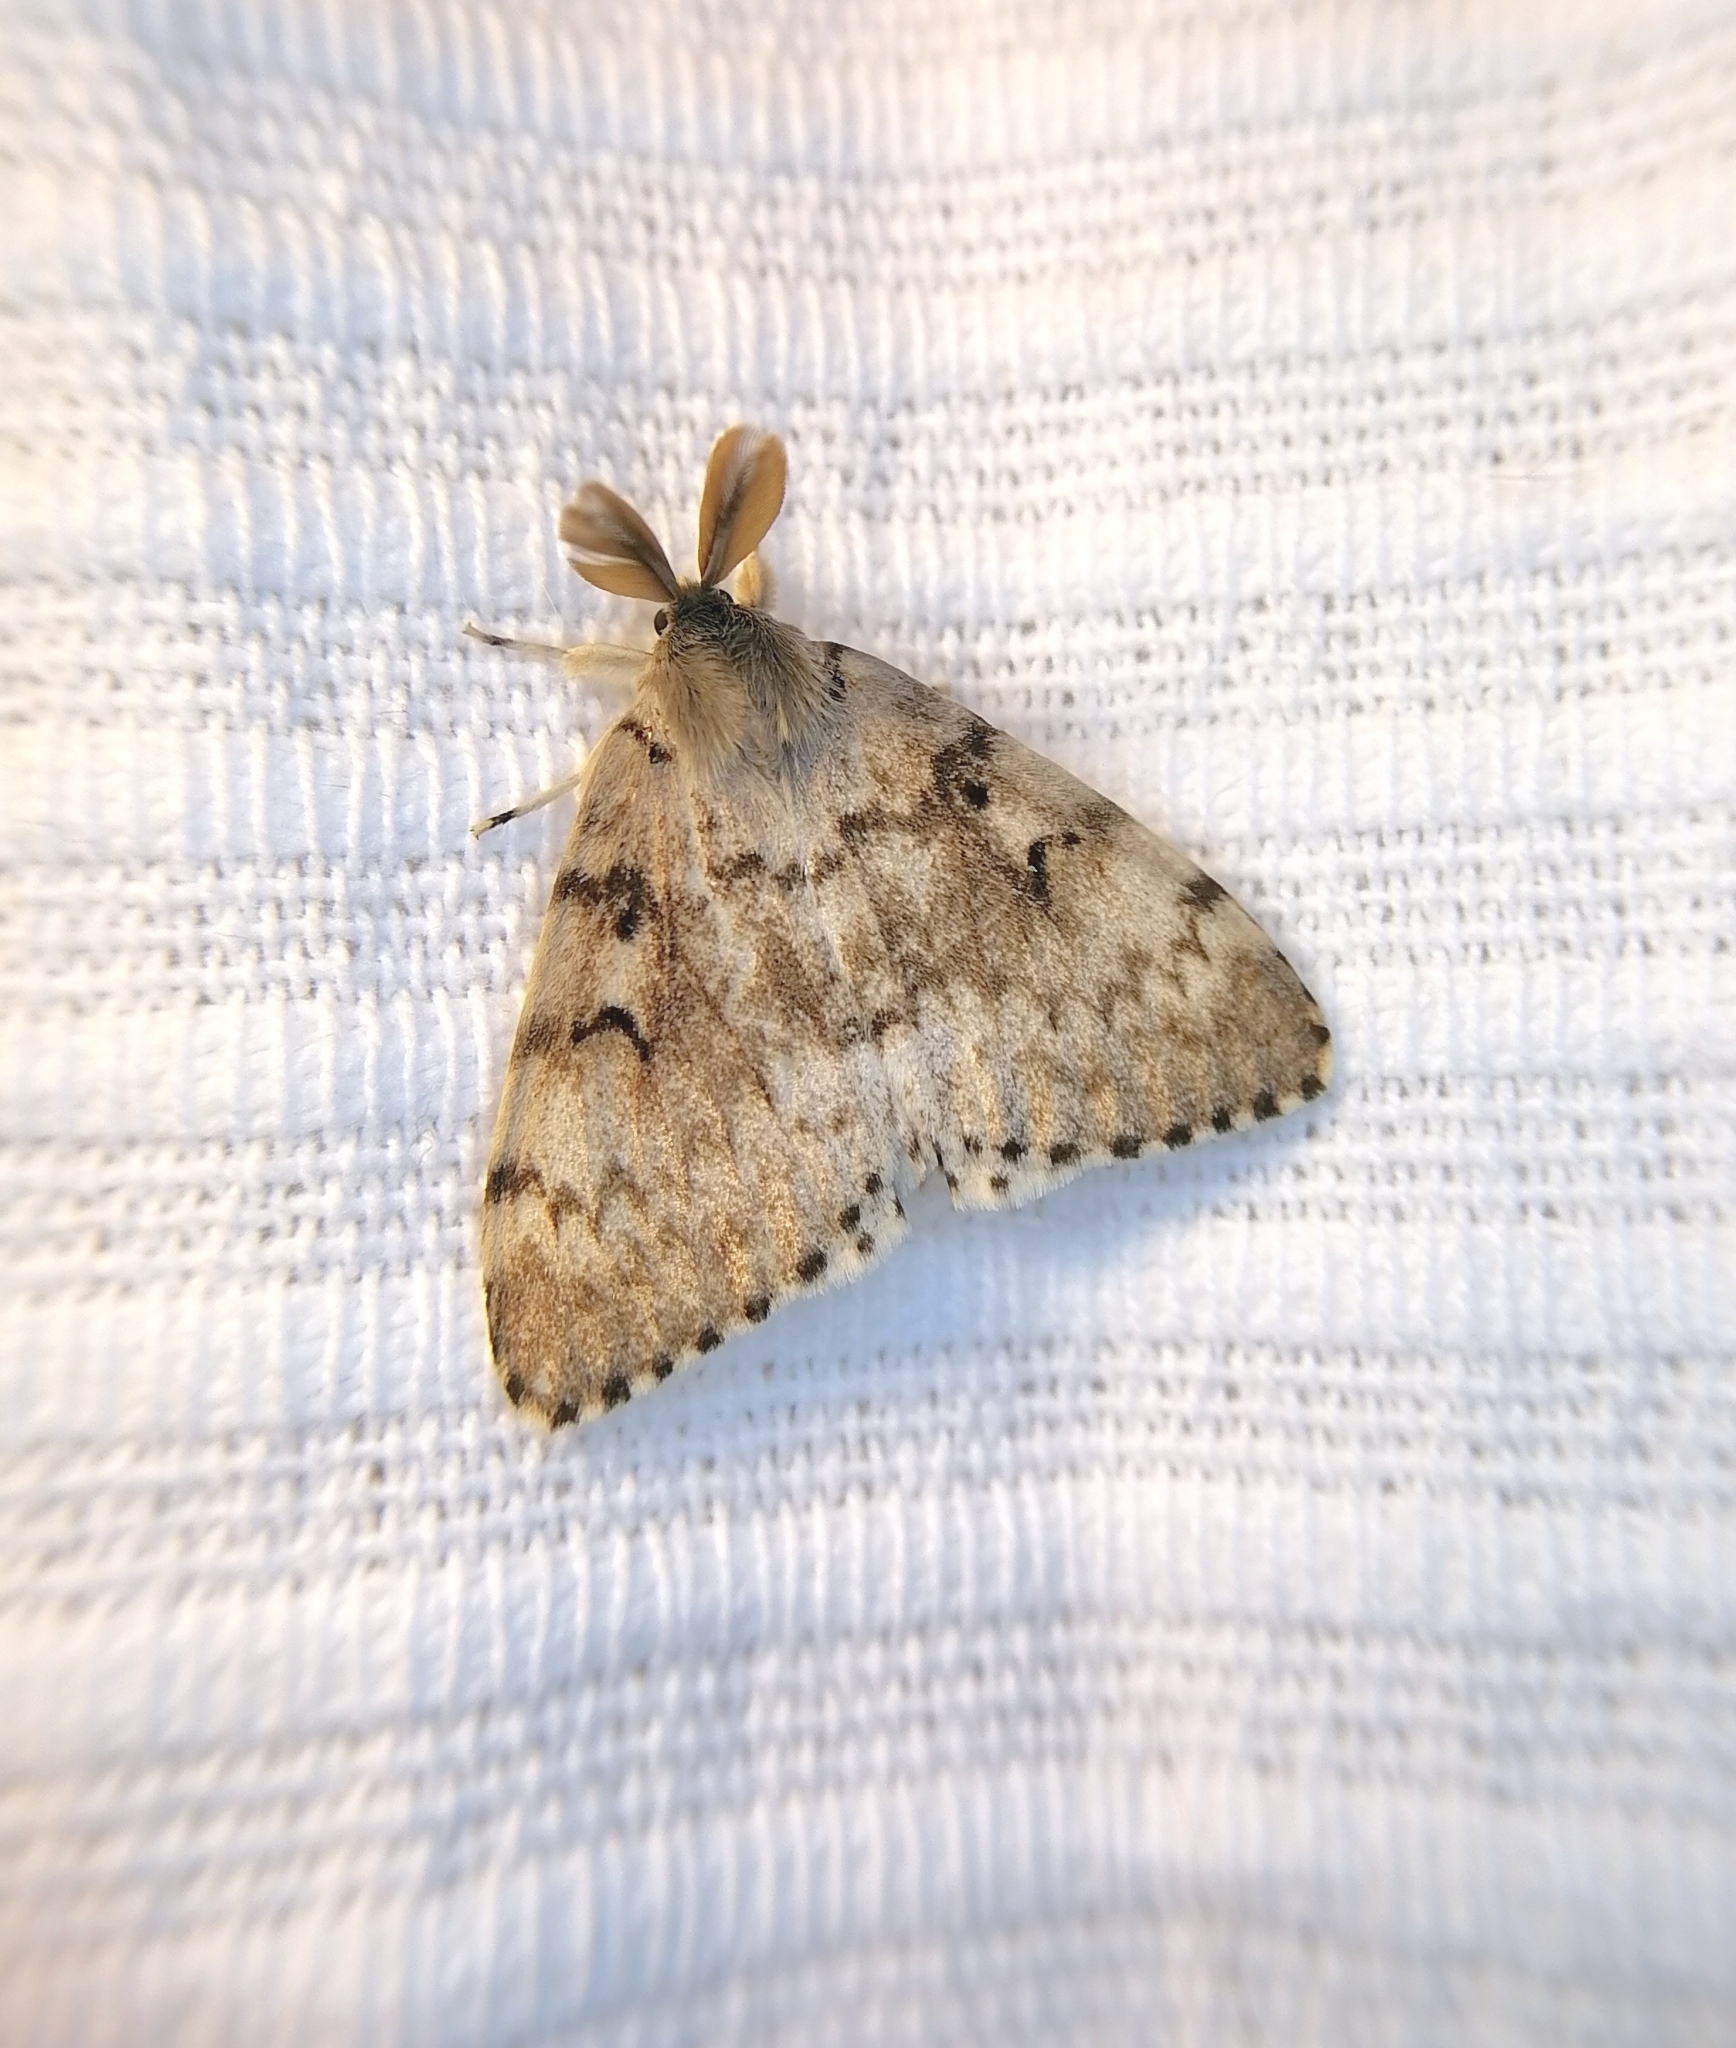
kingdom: Animalia
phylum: Arthropoda
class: Insecta
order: Lepidoptera
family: Erebidae
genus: Lymantria
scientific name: Lymantria dispar
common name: Gypsy moth
